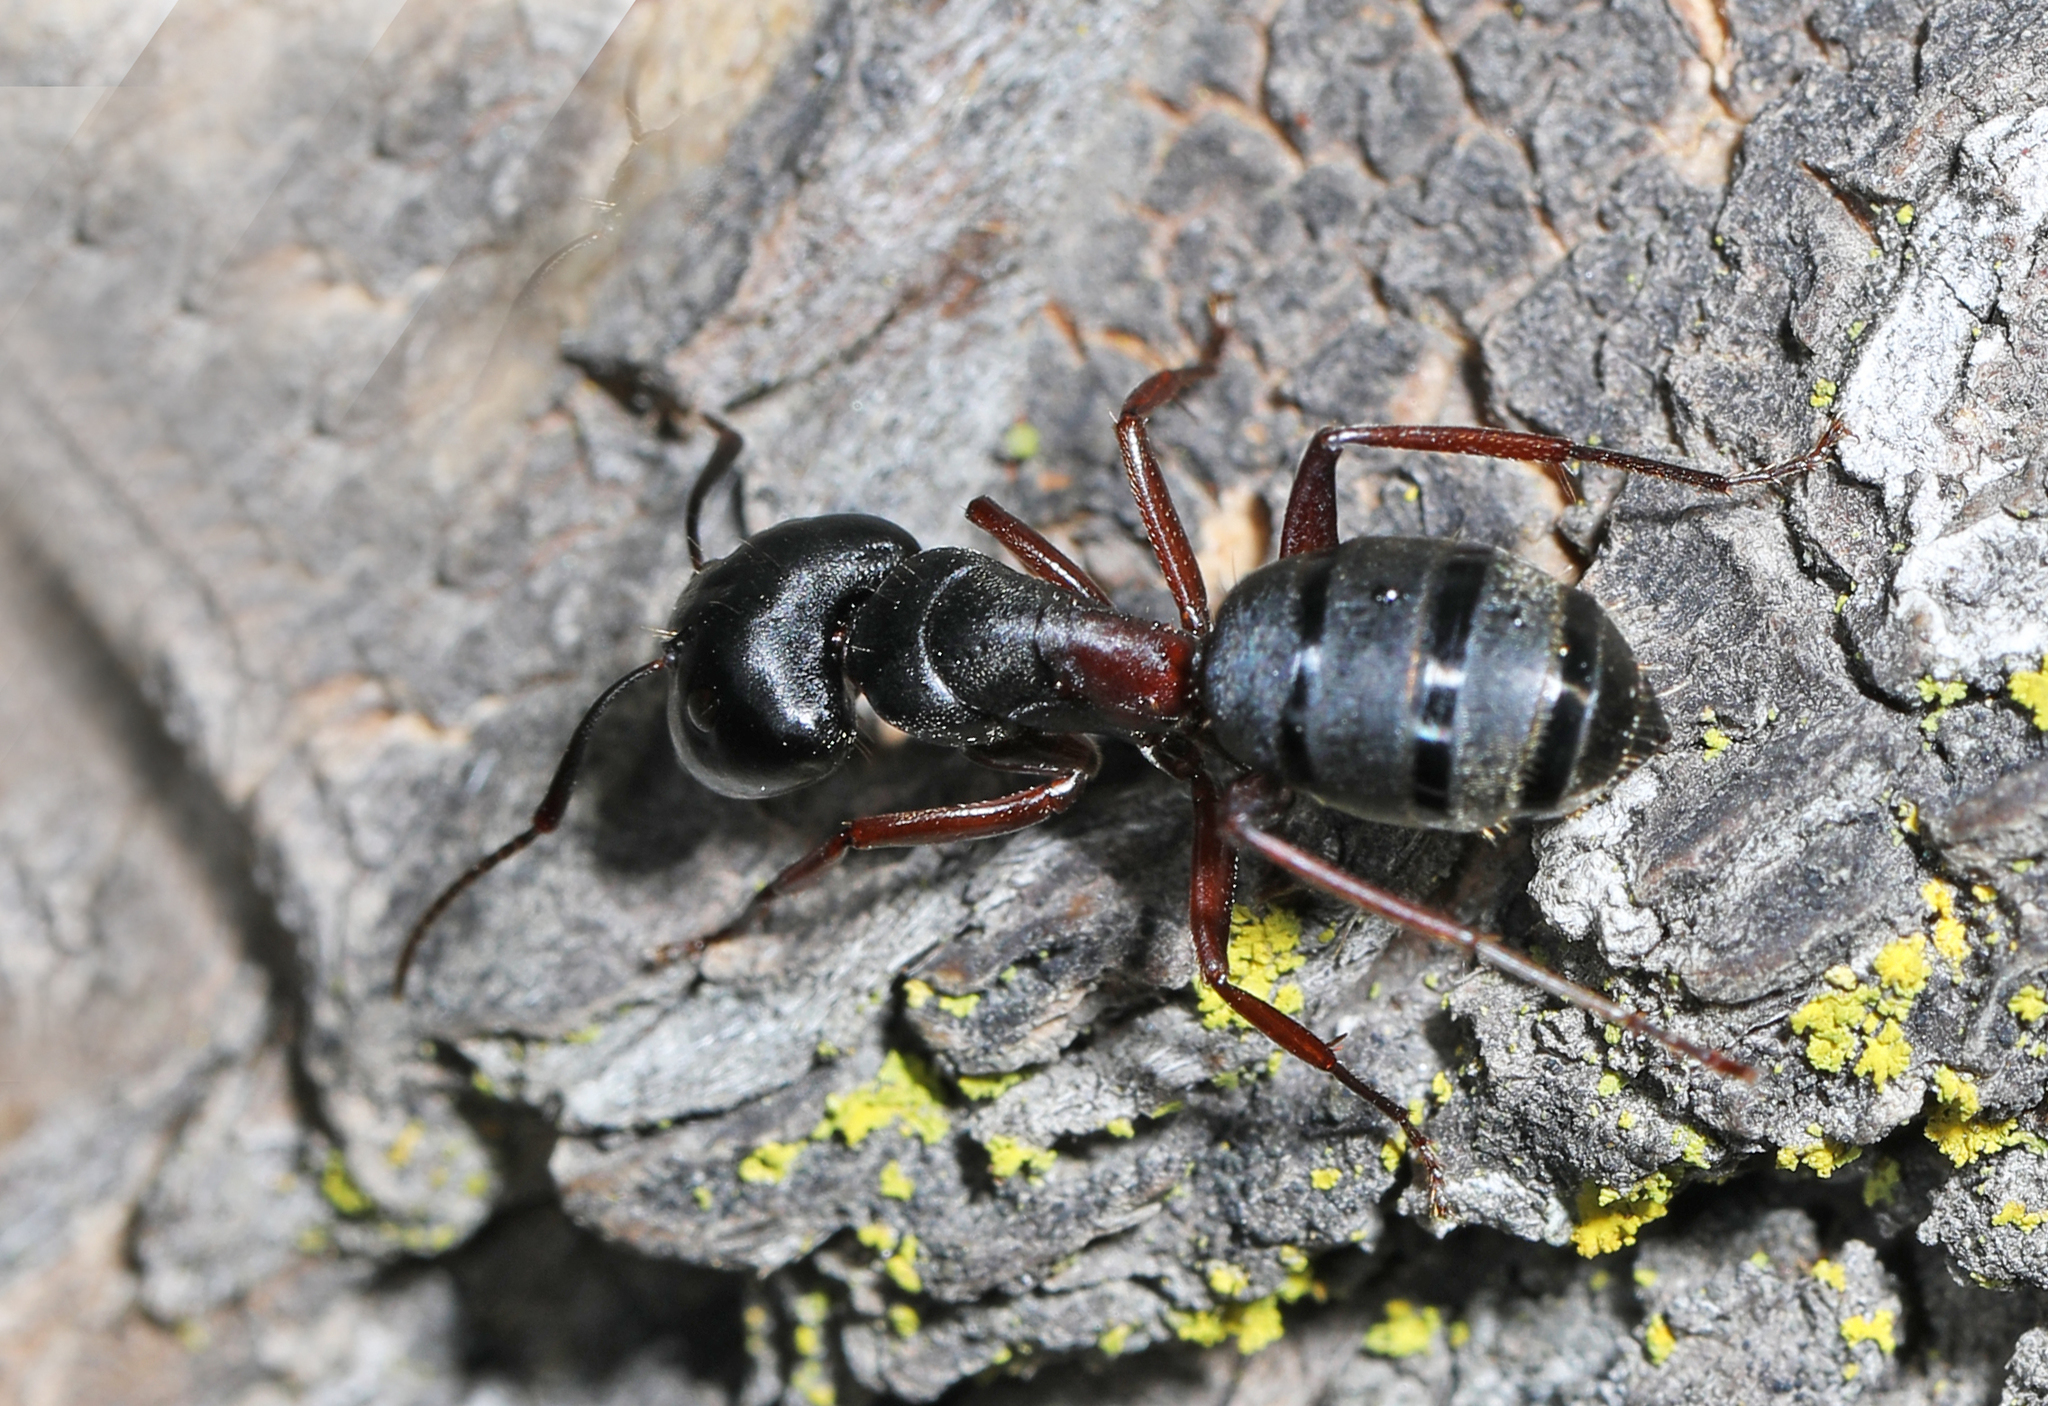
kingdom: Animalia
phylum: Arthropoda
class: Insecta
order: Hymenoptera
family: Formicidae
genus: Camponotus
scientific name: Camponotus herculeanus
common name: Hercules ant
